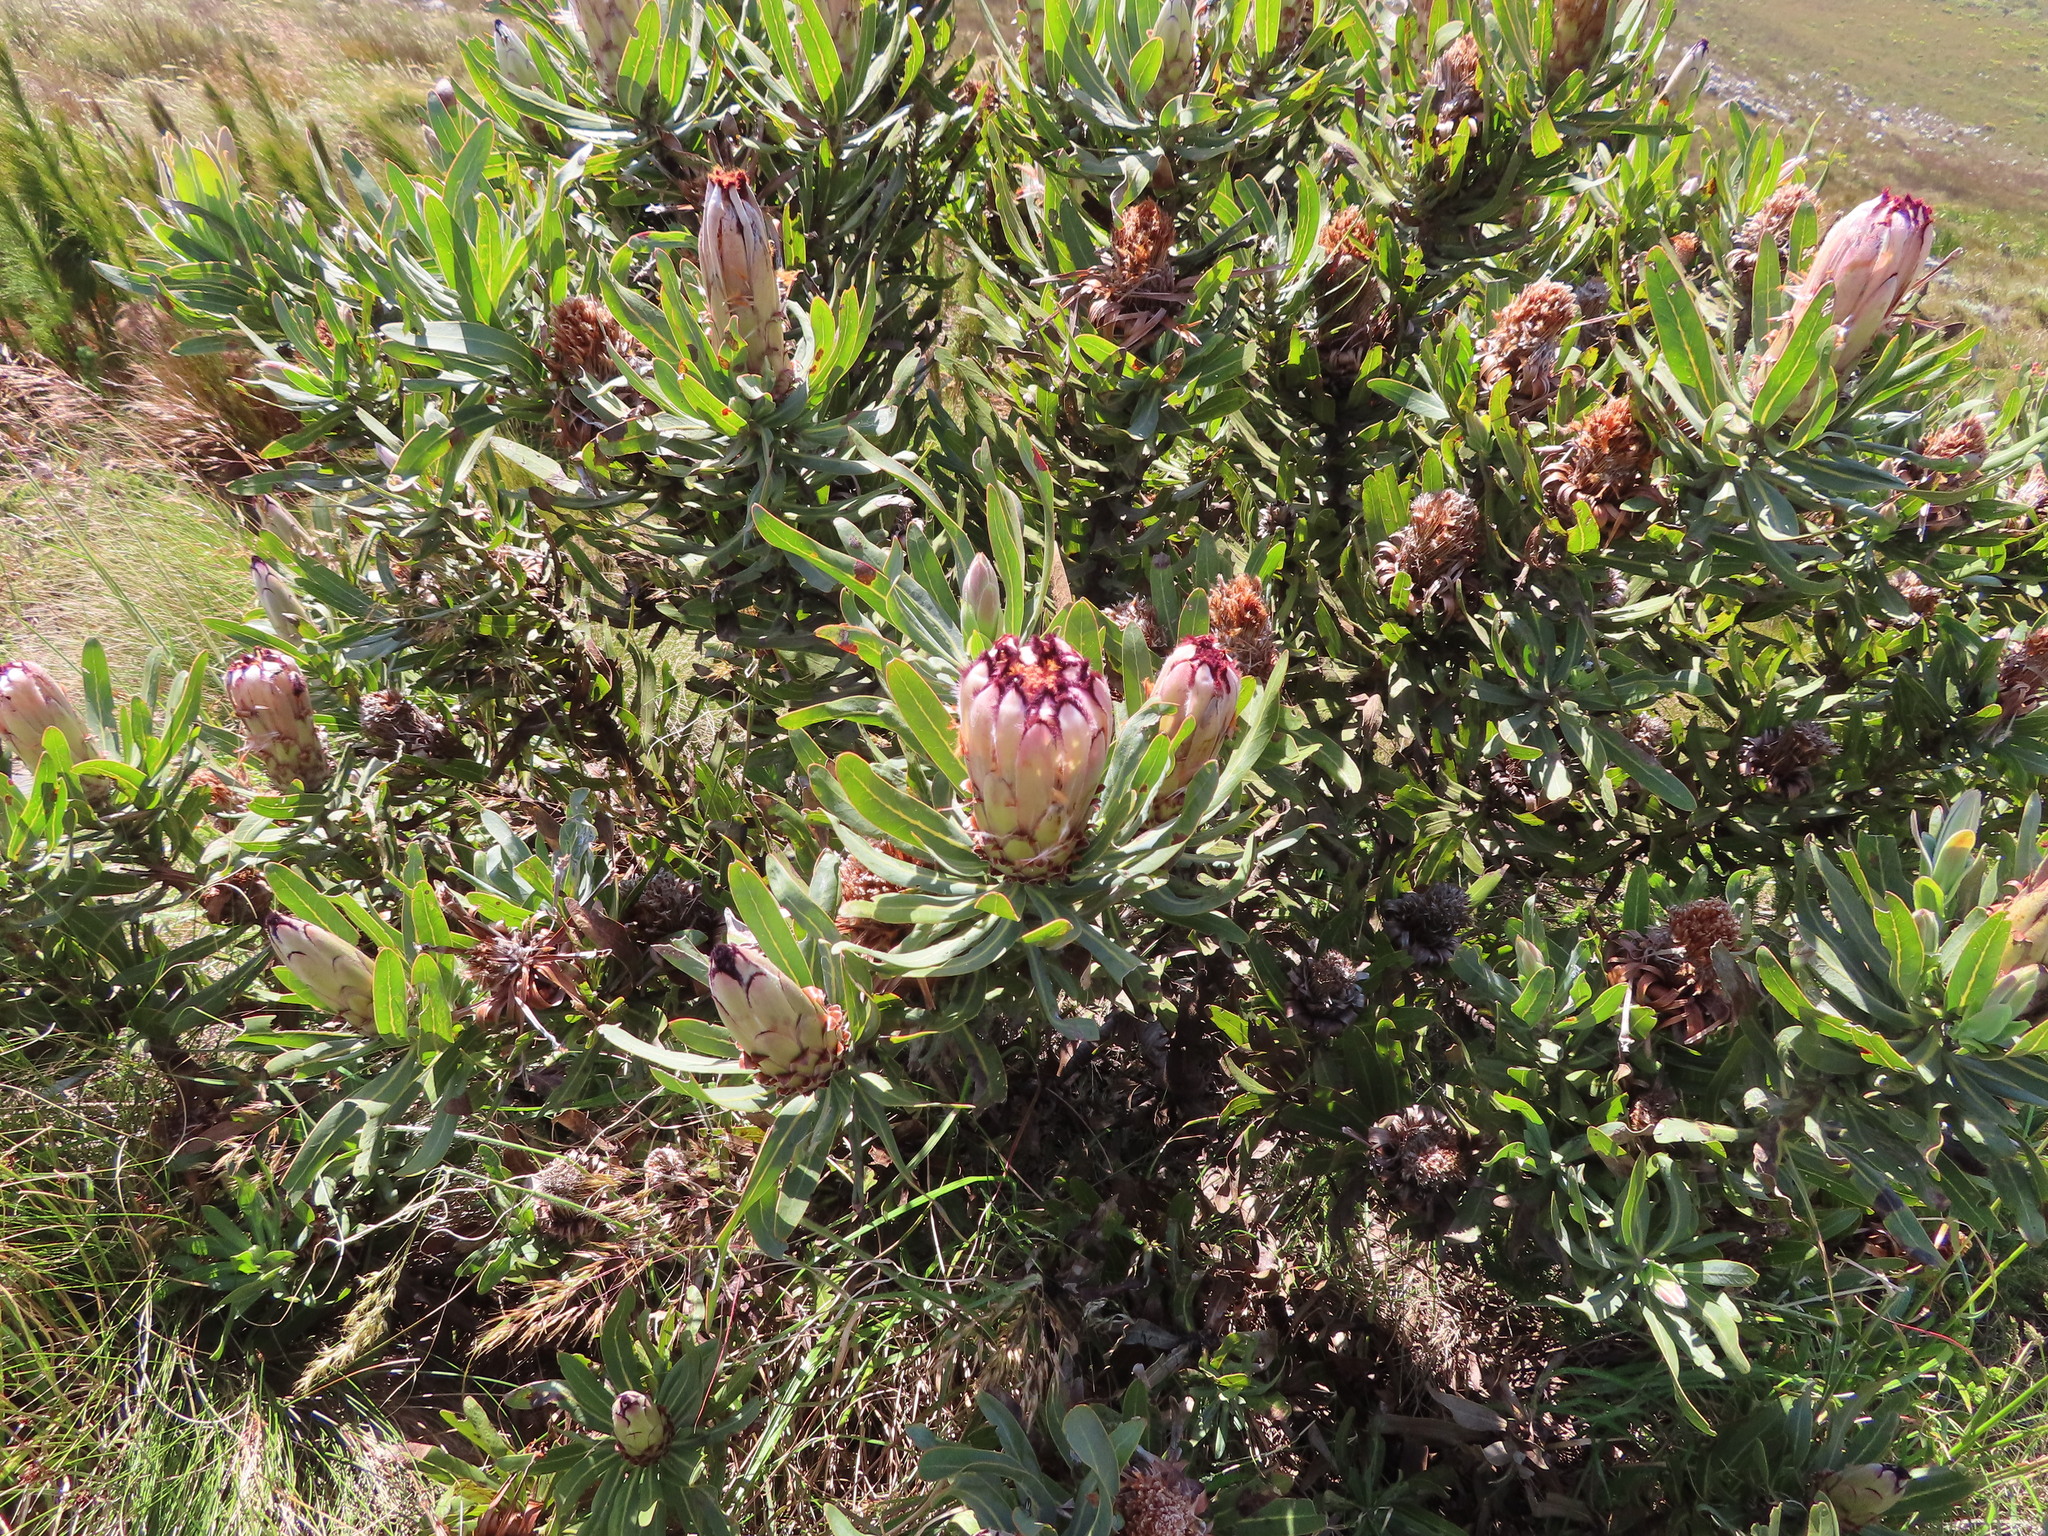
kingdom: Plantae
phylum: Tracheophyta
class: Magnoliopsida
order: Proteales
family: Proteaceae
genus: Protea
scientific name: Protea laurifolia
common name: Grey-leaf sugarbsh
